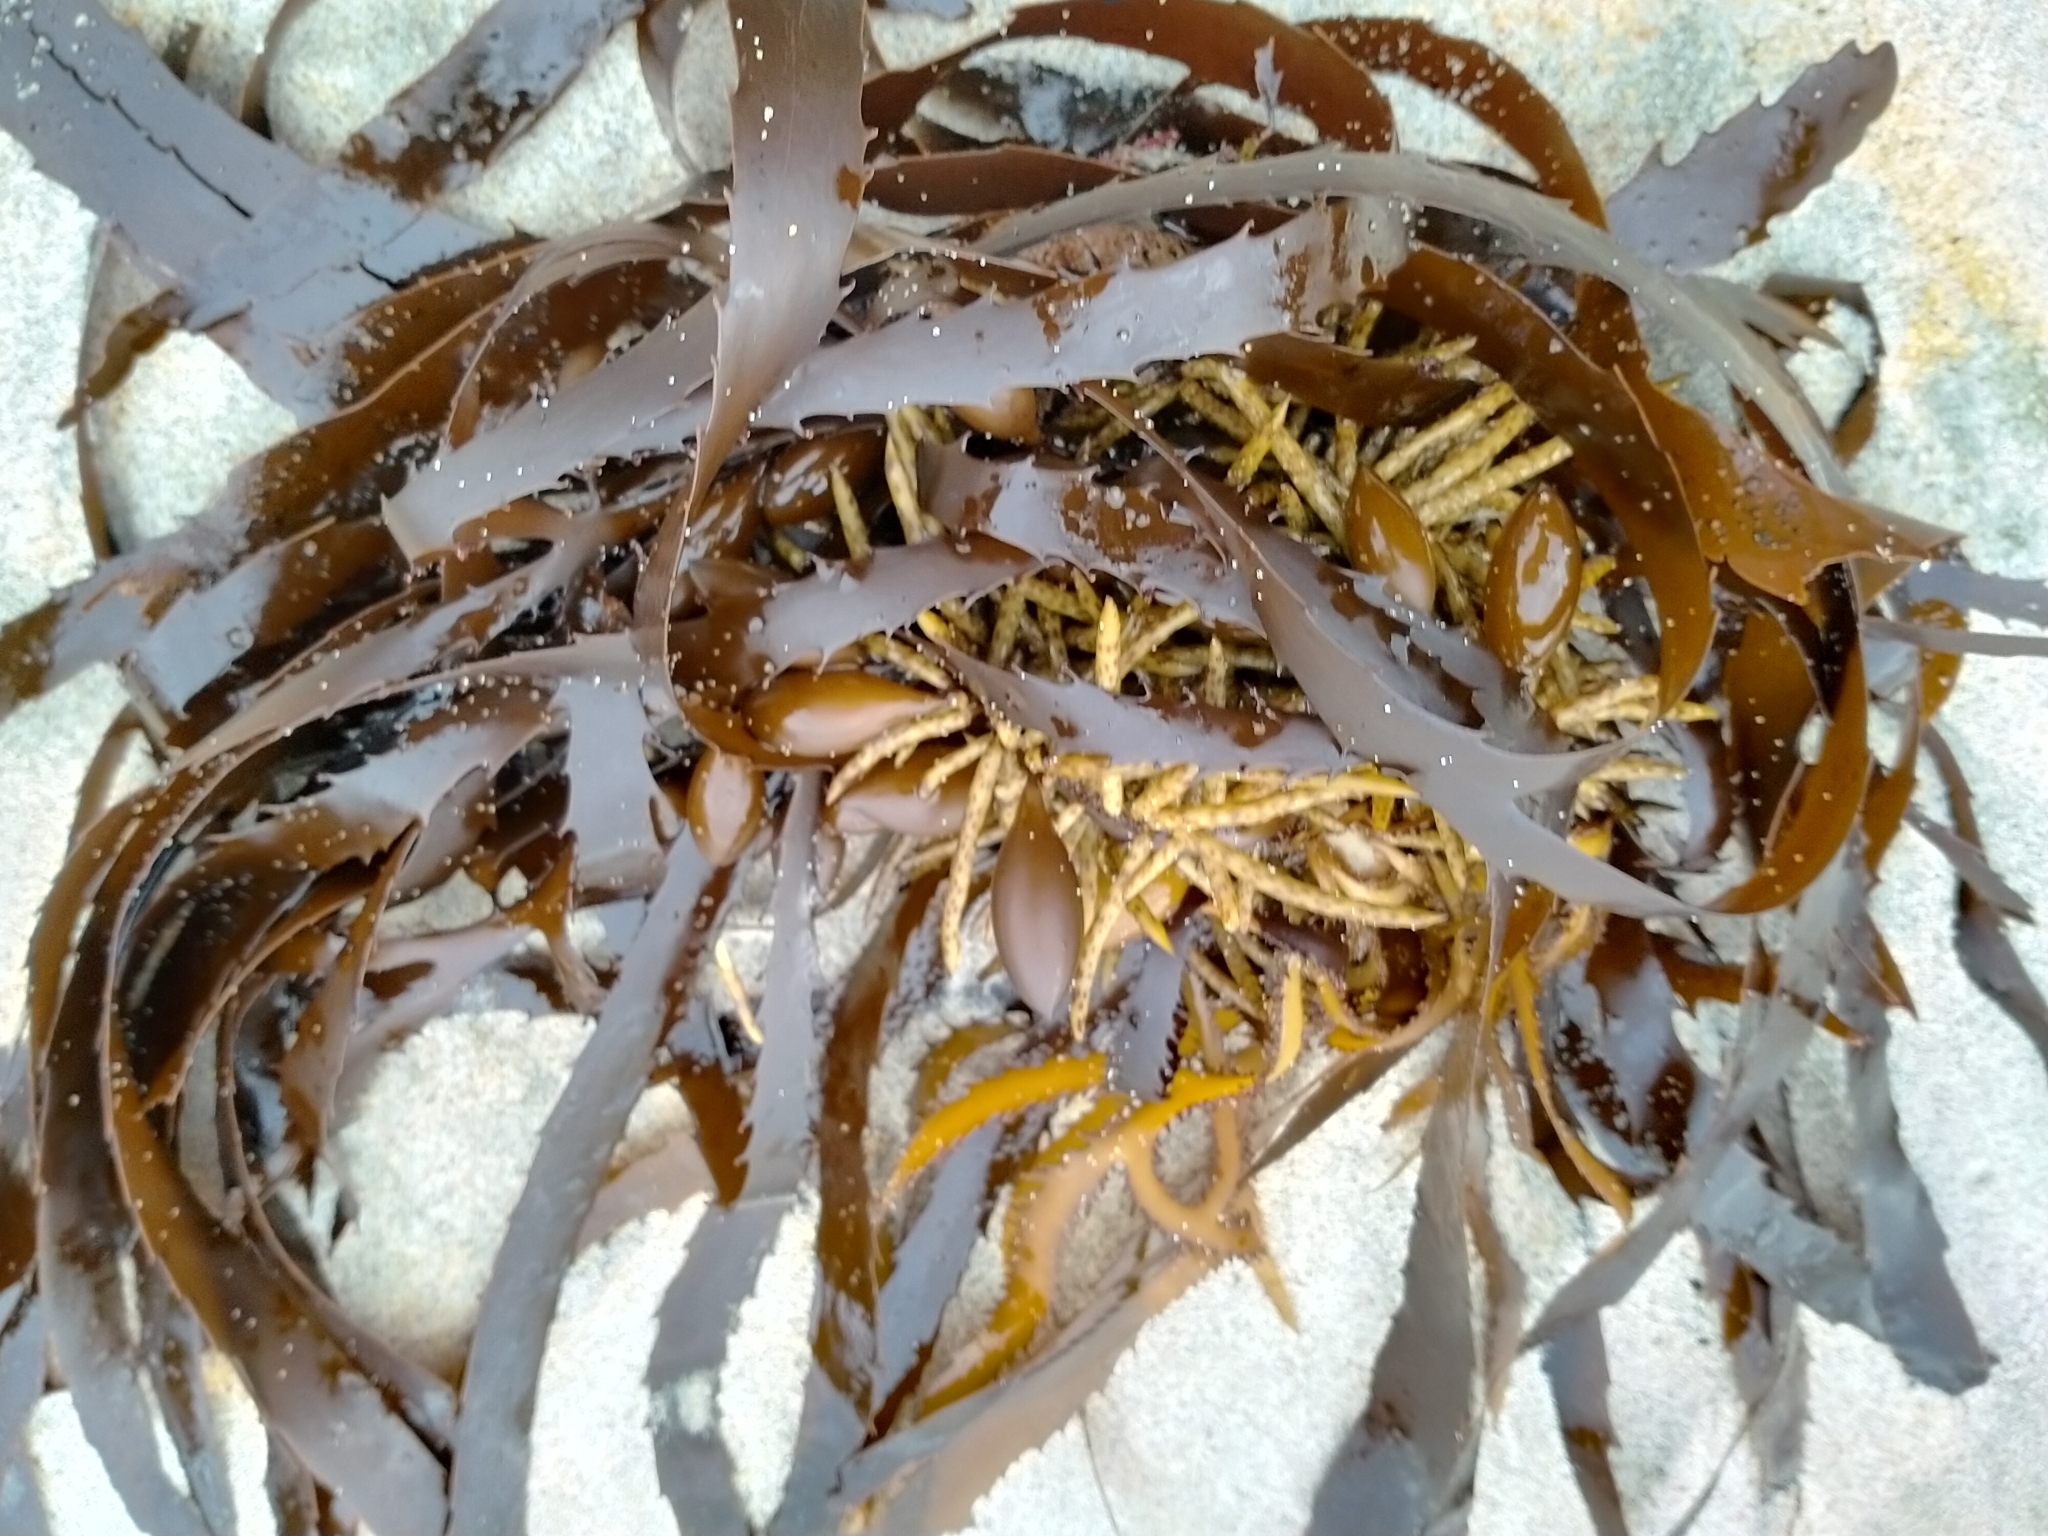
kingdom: Chromista
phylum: Ochrophyta
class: Phaeophyceae
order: Fucales
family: Seirococcaceae
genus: Marginariella
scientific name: Marginariella boryana
